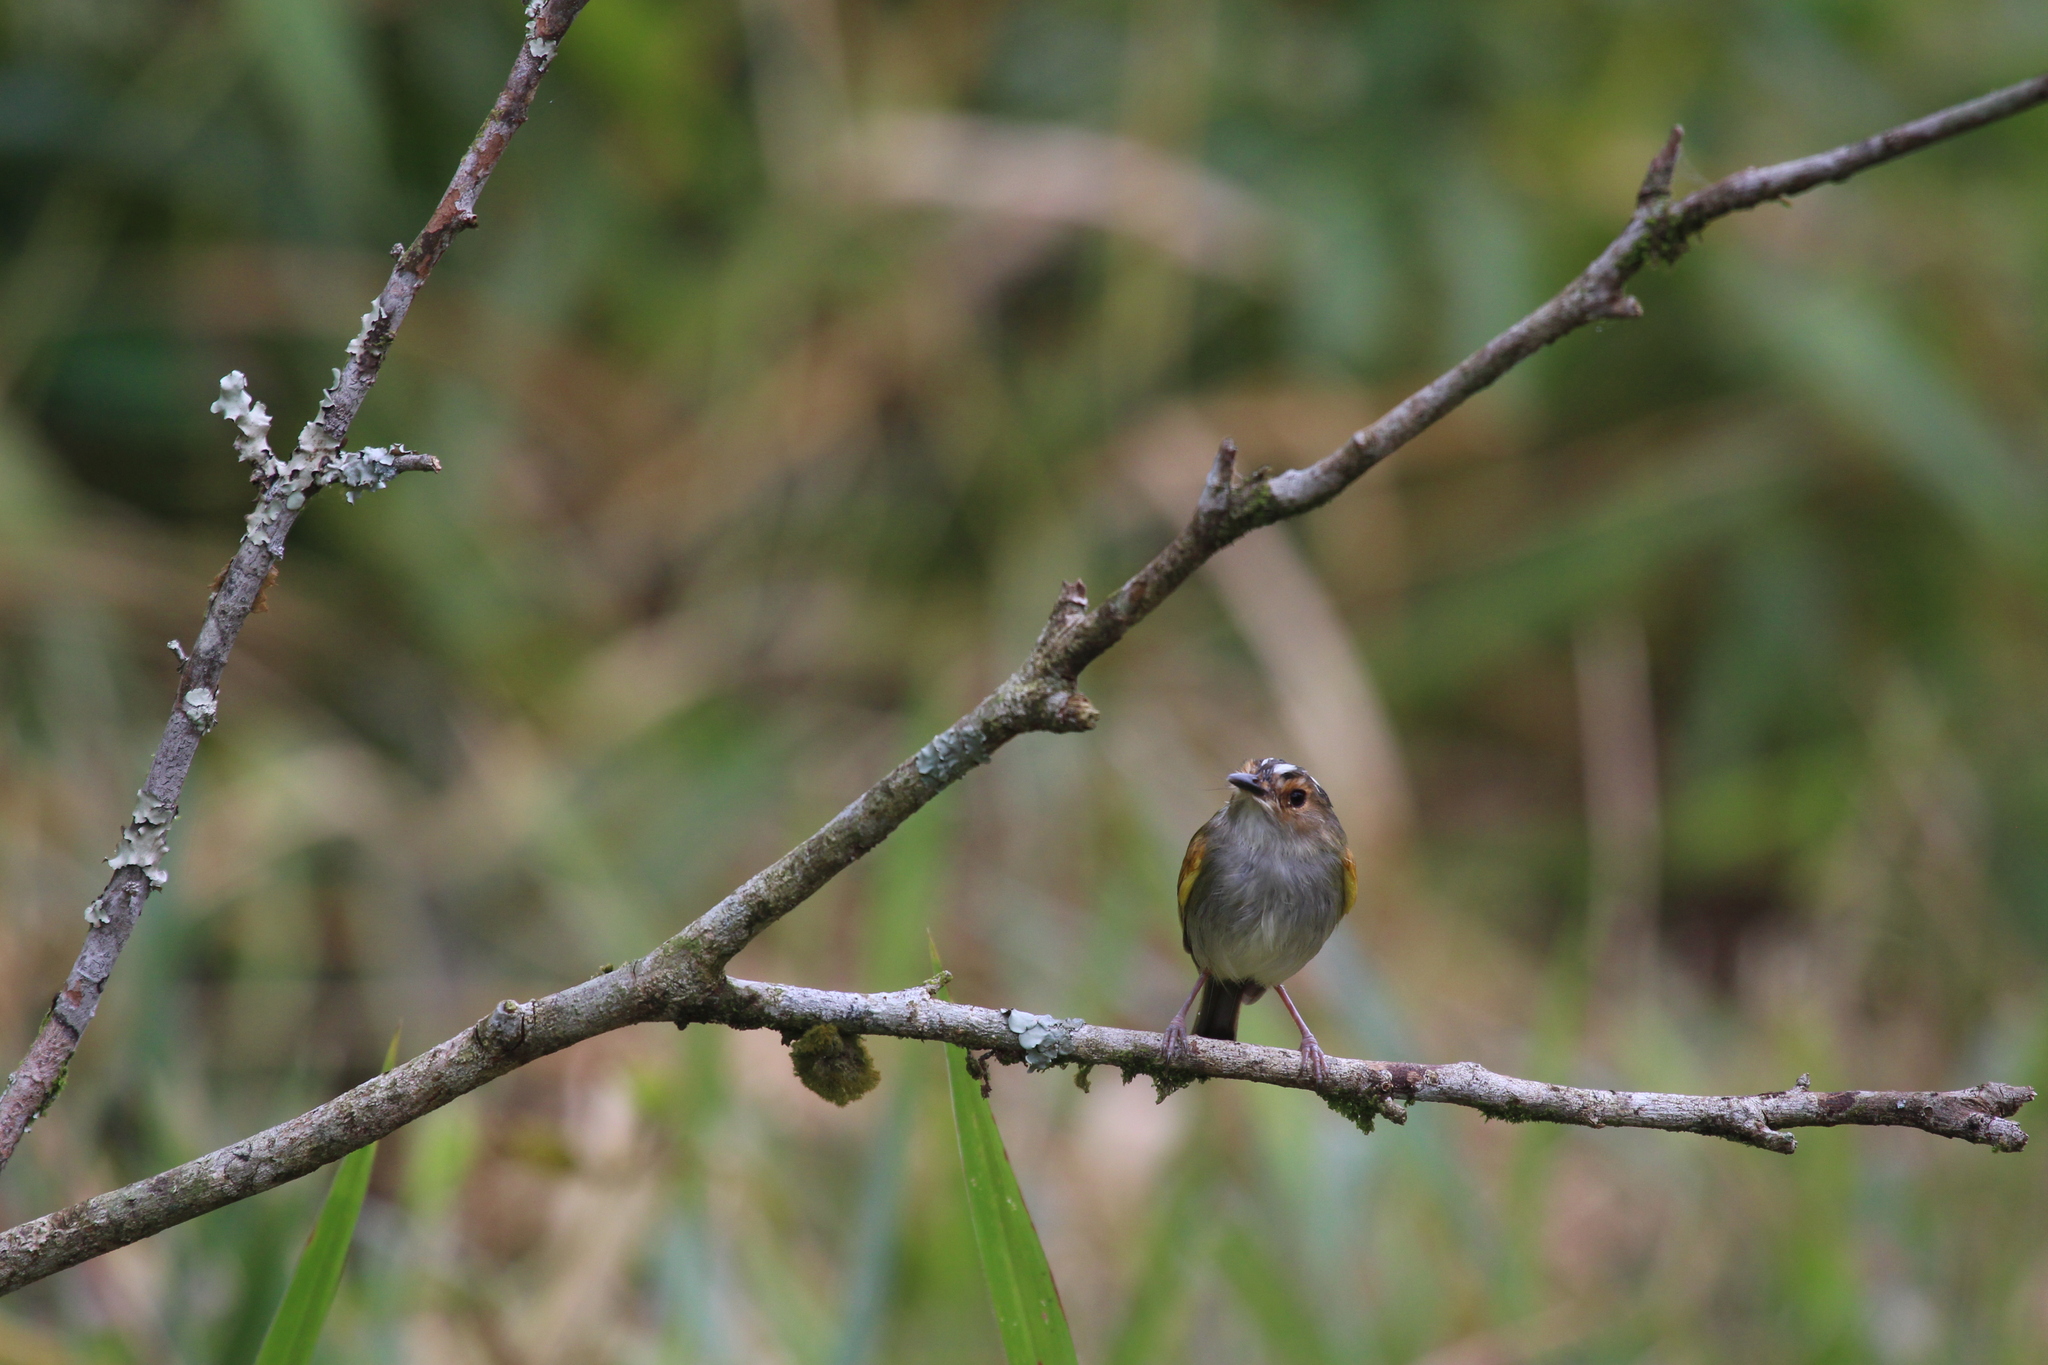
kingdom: Animalia
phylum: Chordata
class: Aves
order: Passeriformes
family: Tyrannidae
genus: Poecilotriccus
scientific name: Poecilotriccus latirostris
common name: Rusty-fronted tody-flycatcher
